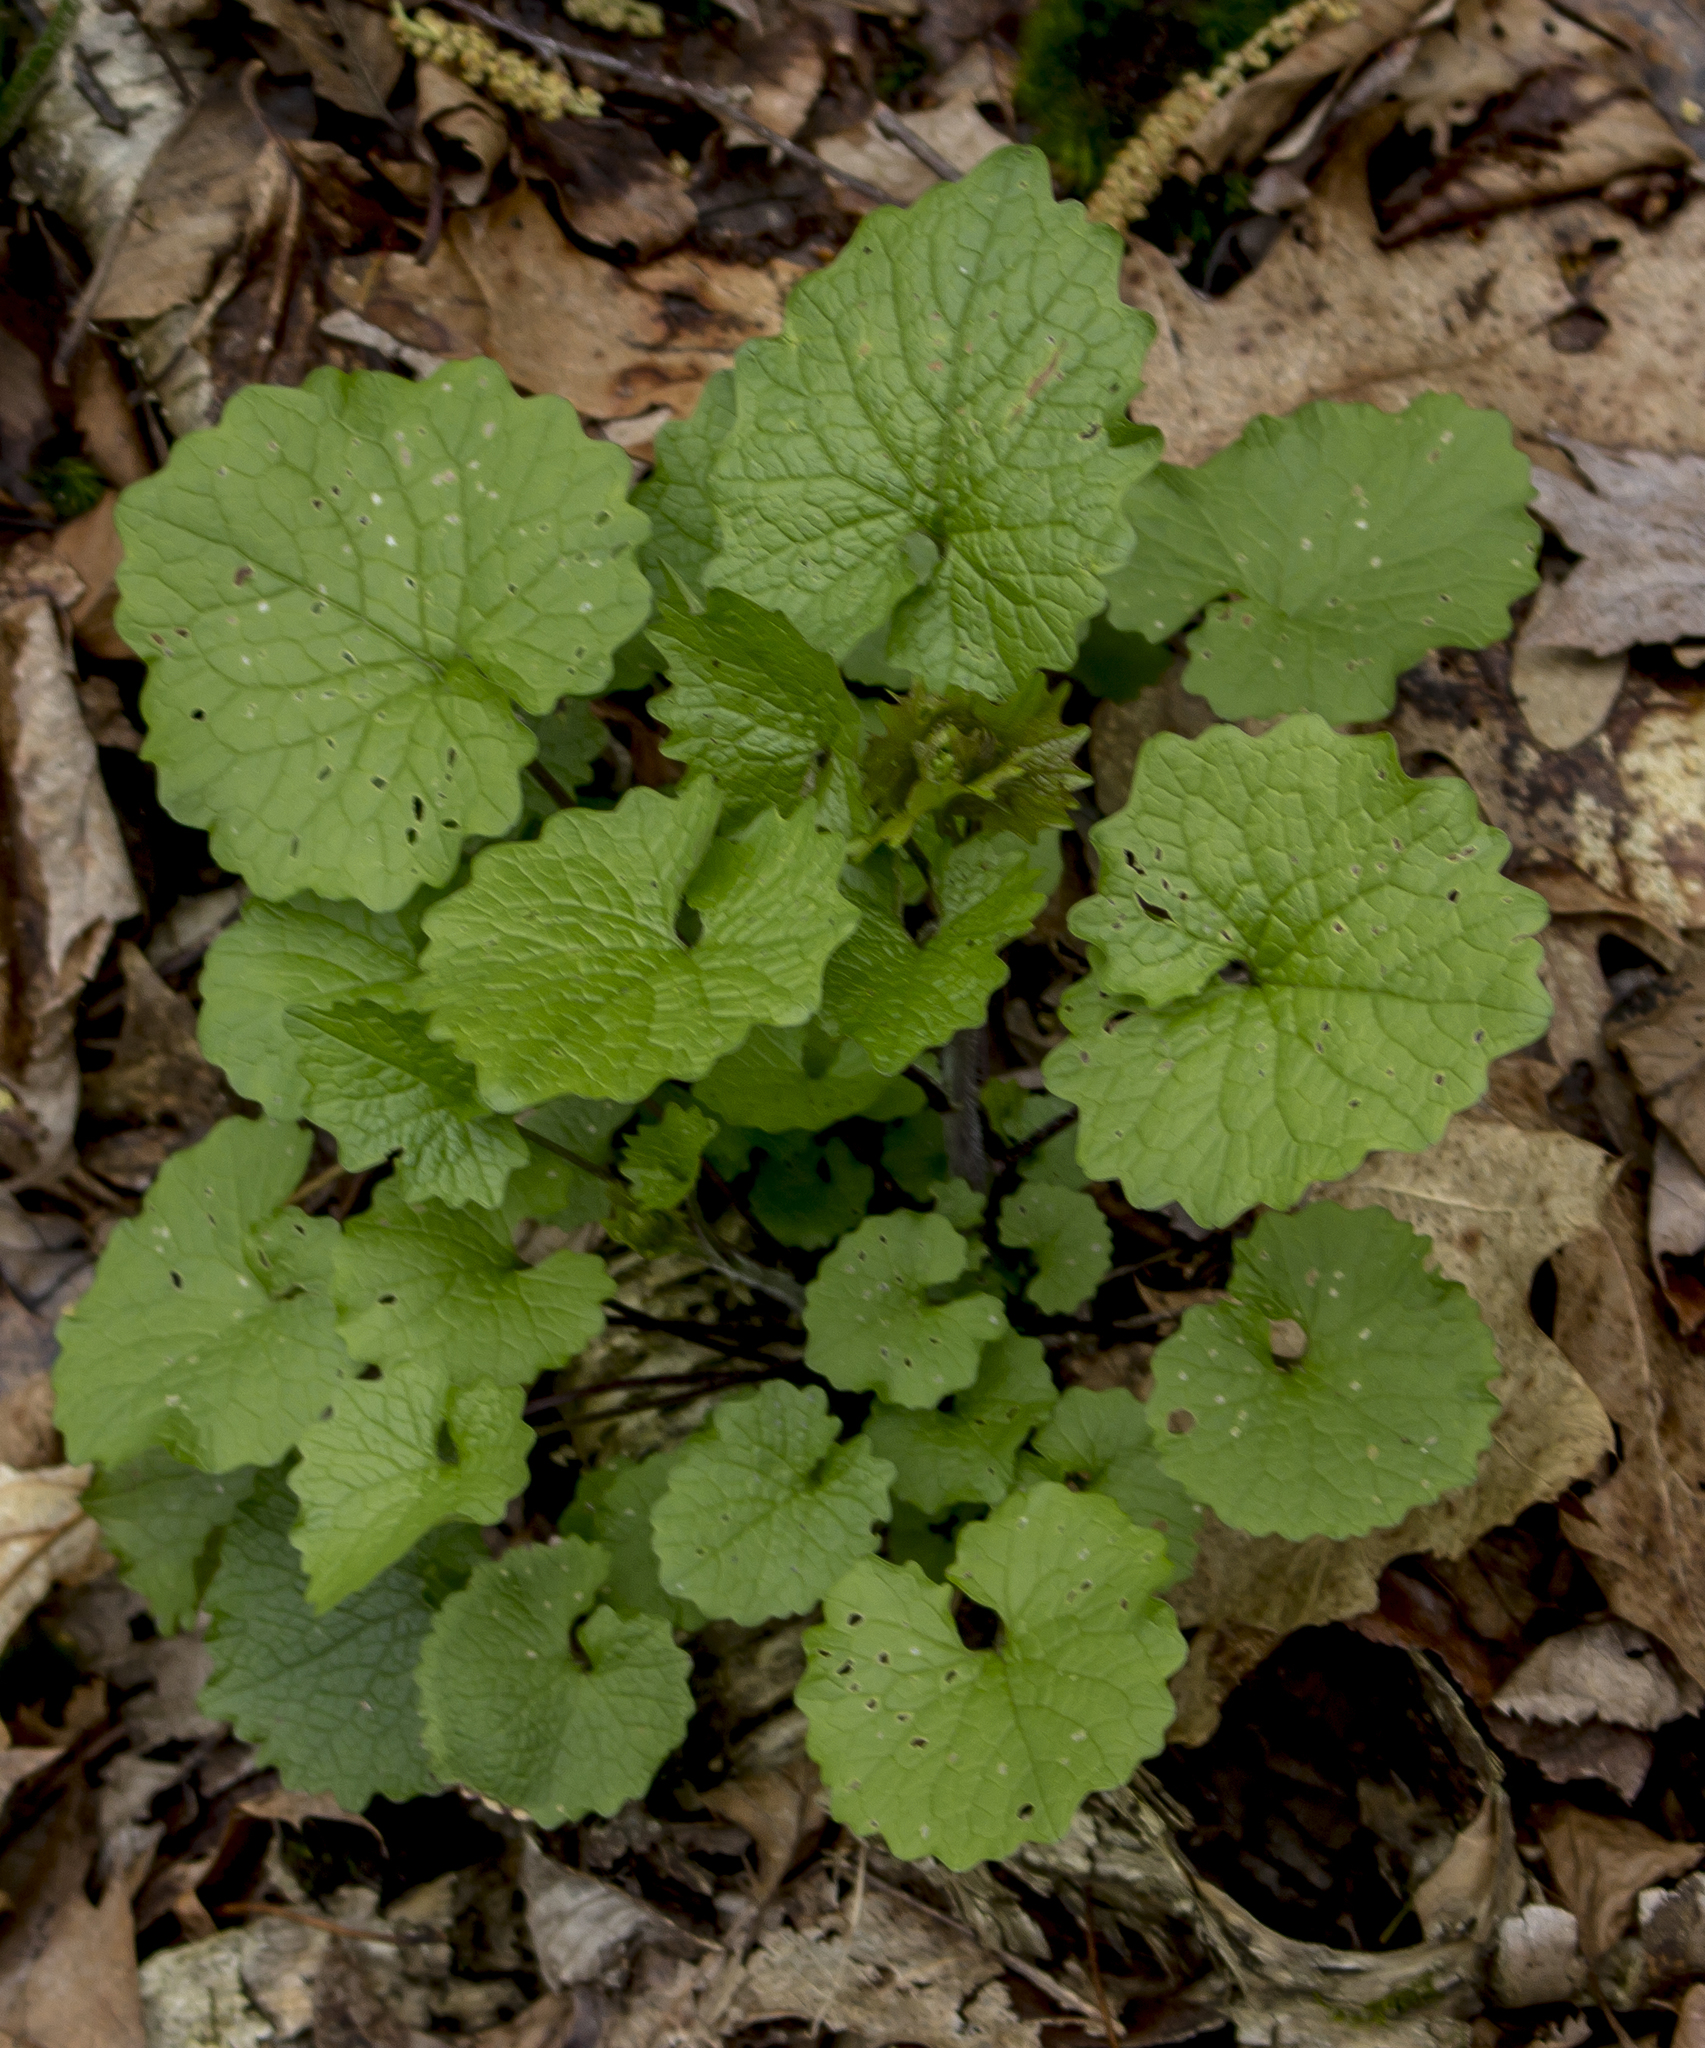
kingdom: Plantae
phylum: Tracheophyta
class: Magnoliopsida
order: Brassicales
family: Brassicaceae
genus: Alliaria
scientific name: Alliaria petiolata
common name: Garlic mustard
